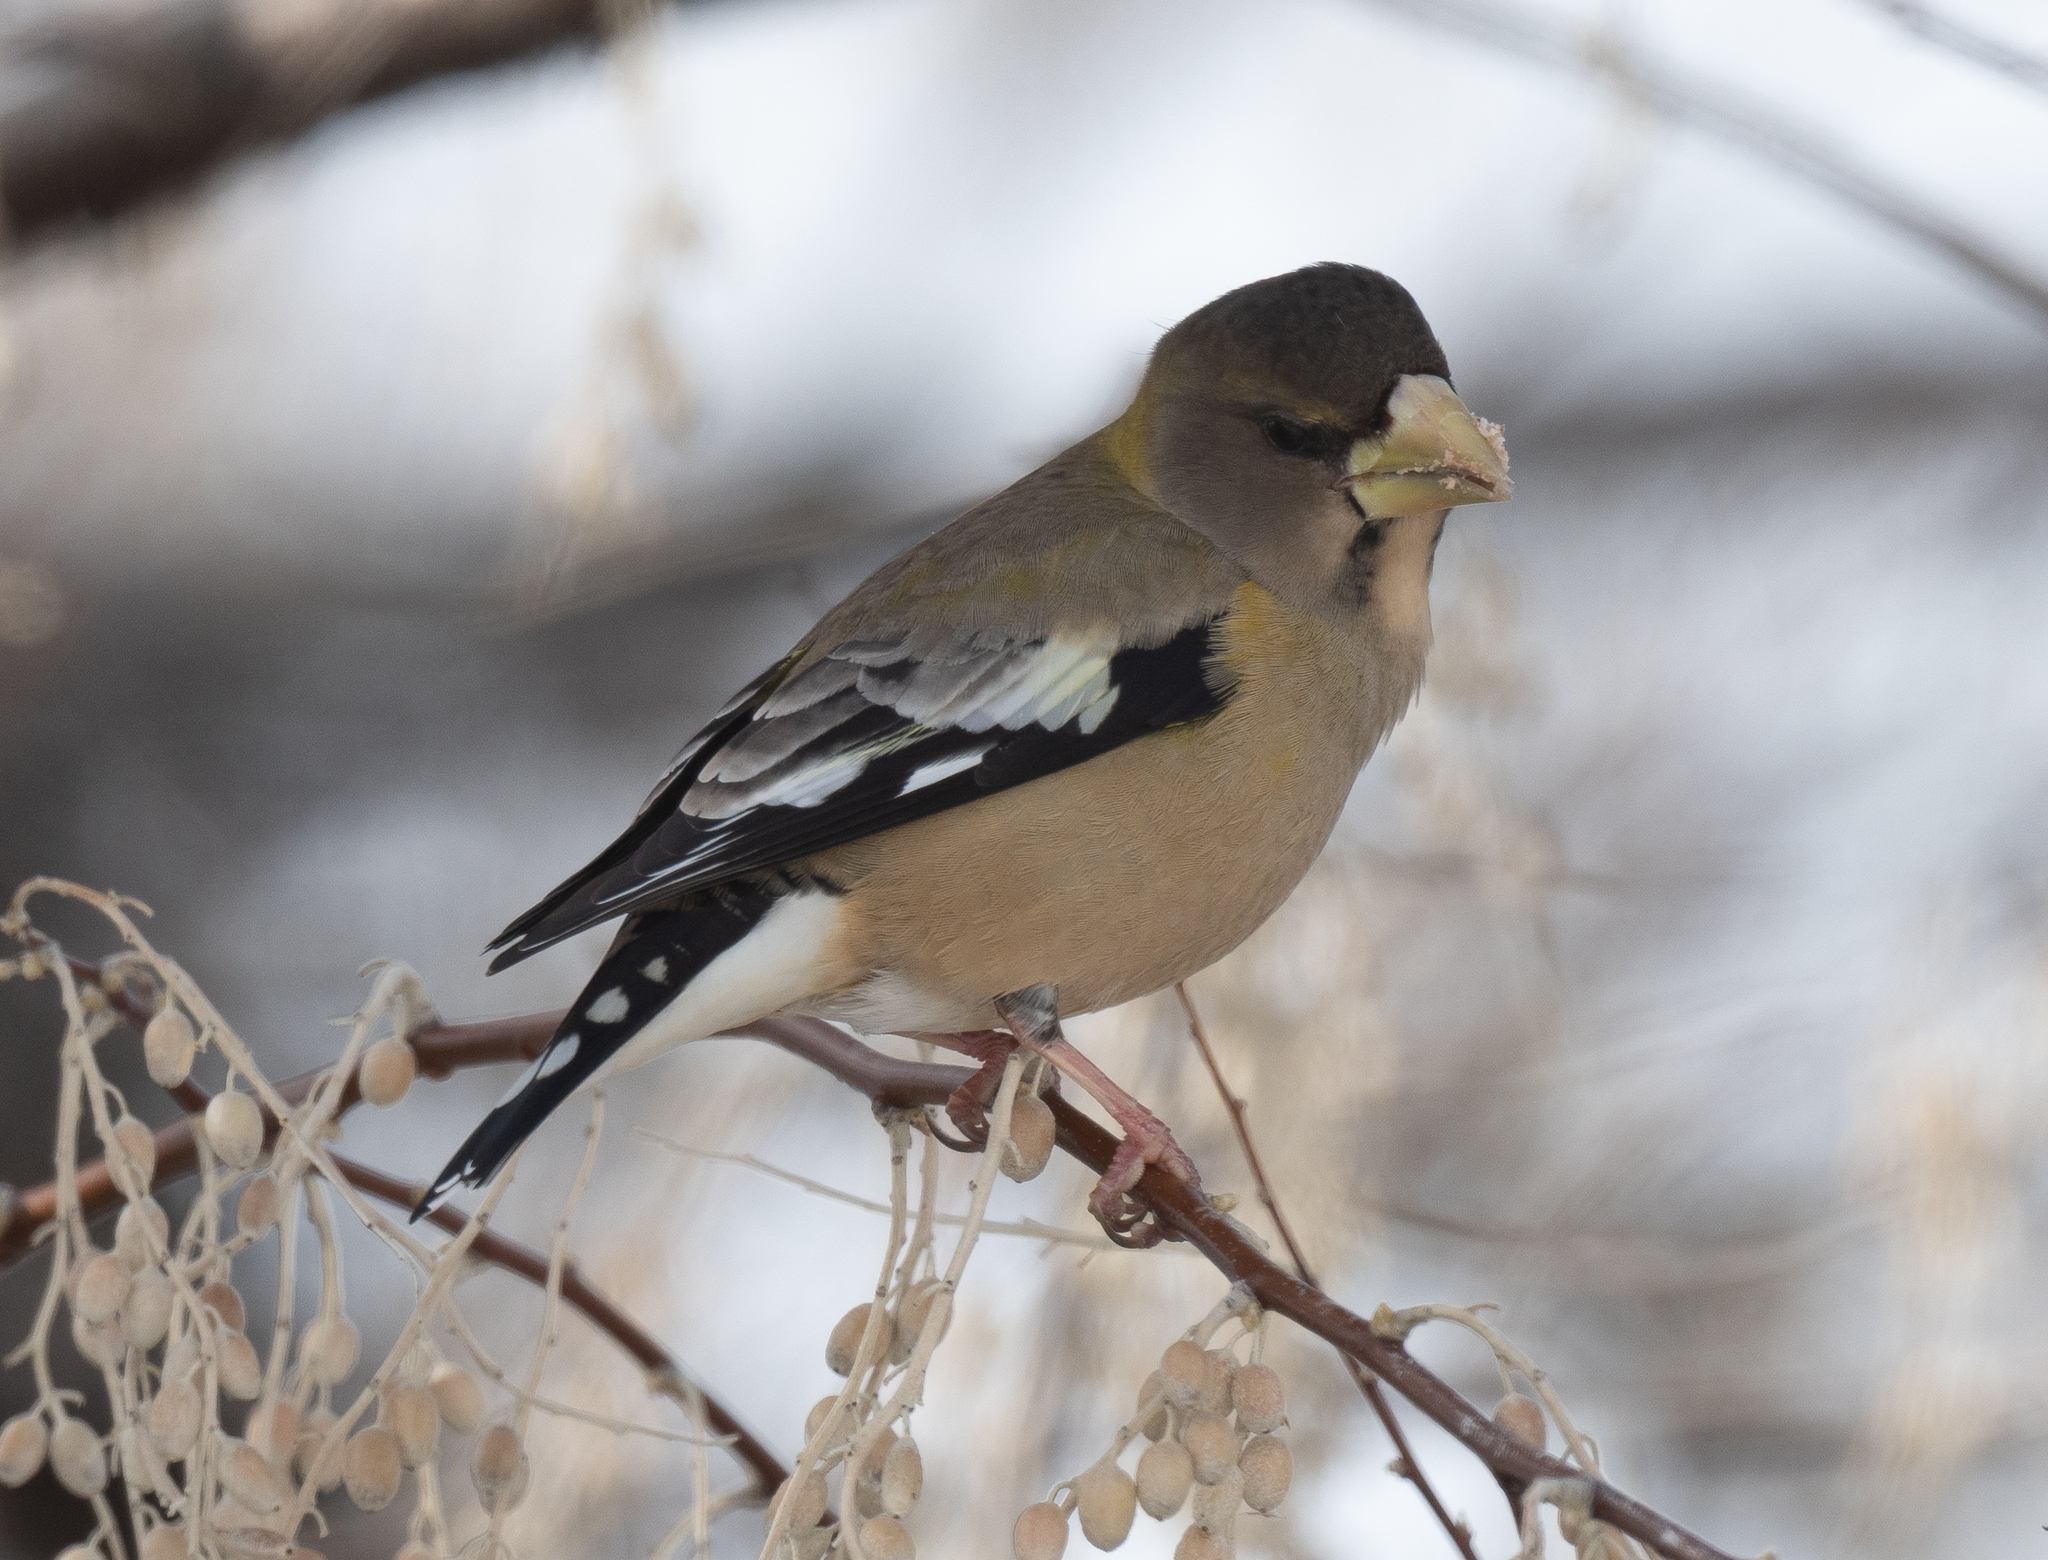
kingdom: Animalia
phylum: Chordata
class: Aves
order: Passeriformes
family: Fringillidae
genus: Hesperiphona
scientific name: Hesperiphona vespertina
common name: Evening grosbeak
